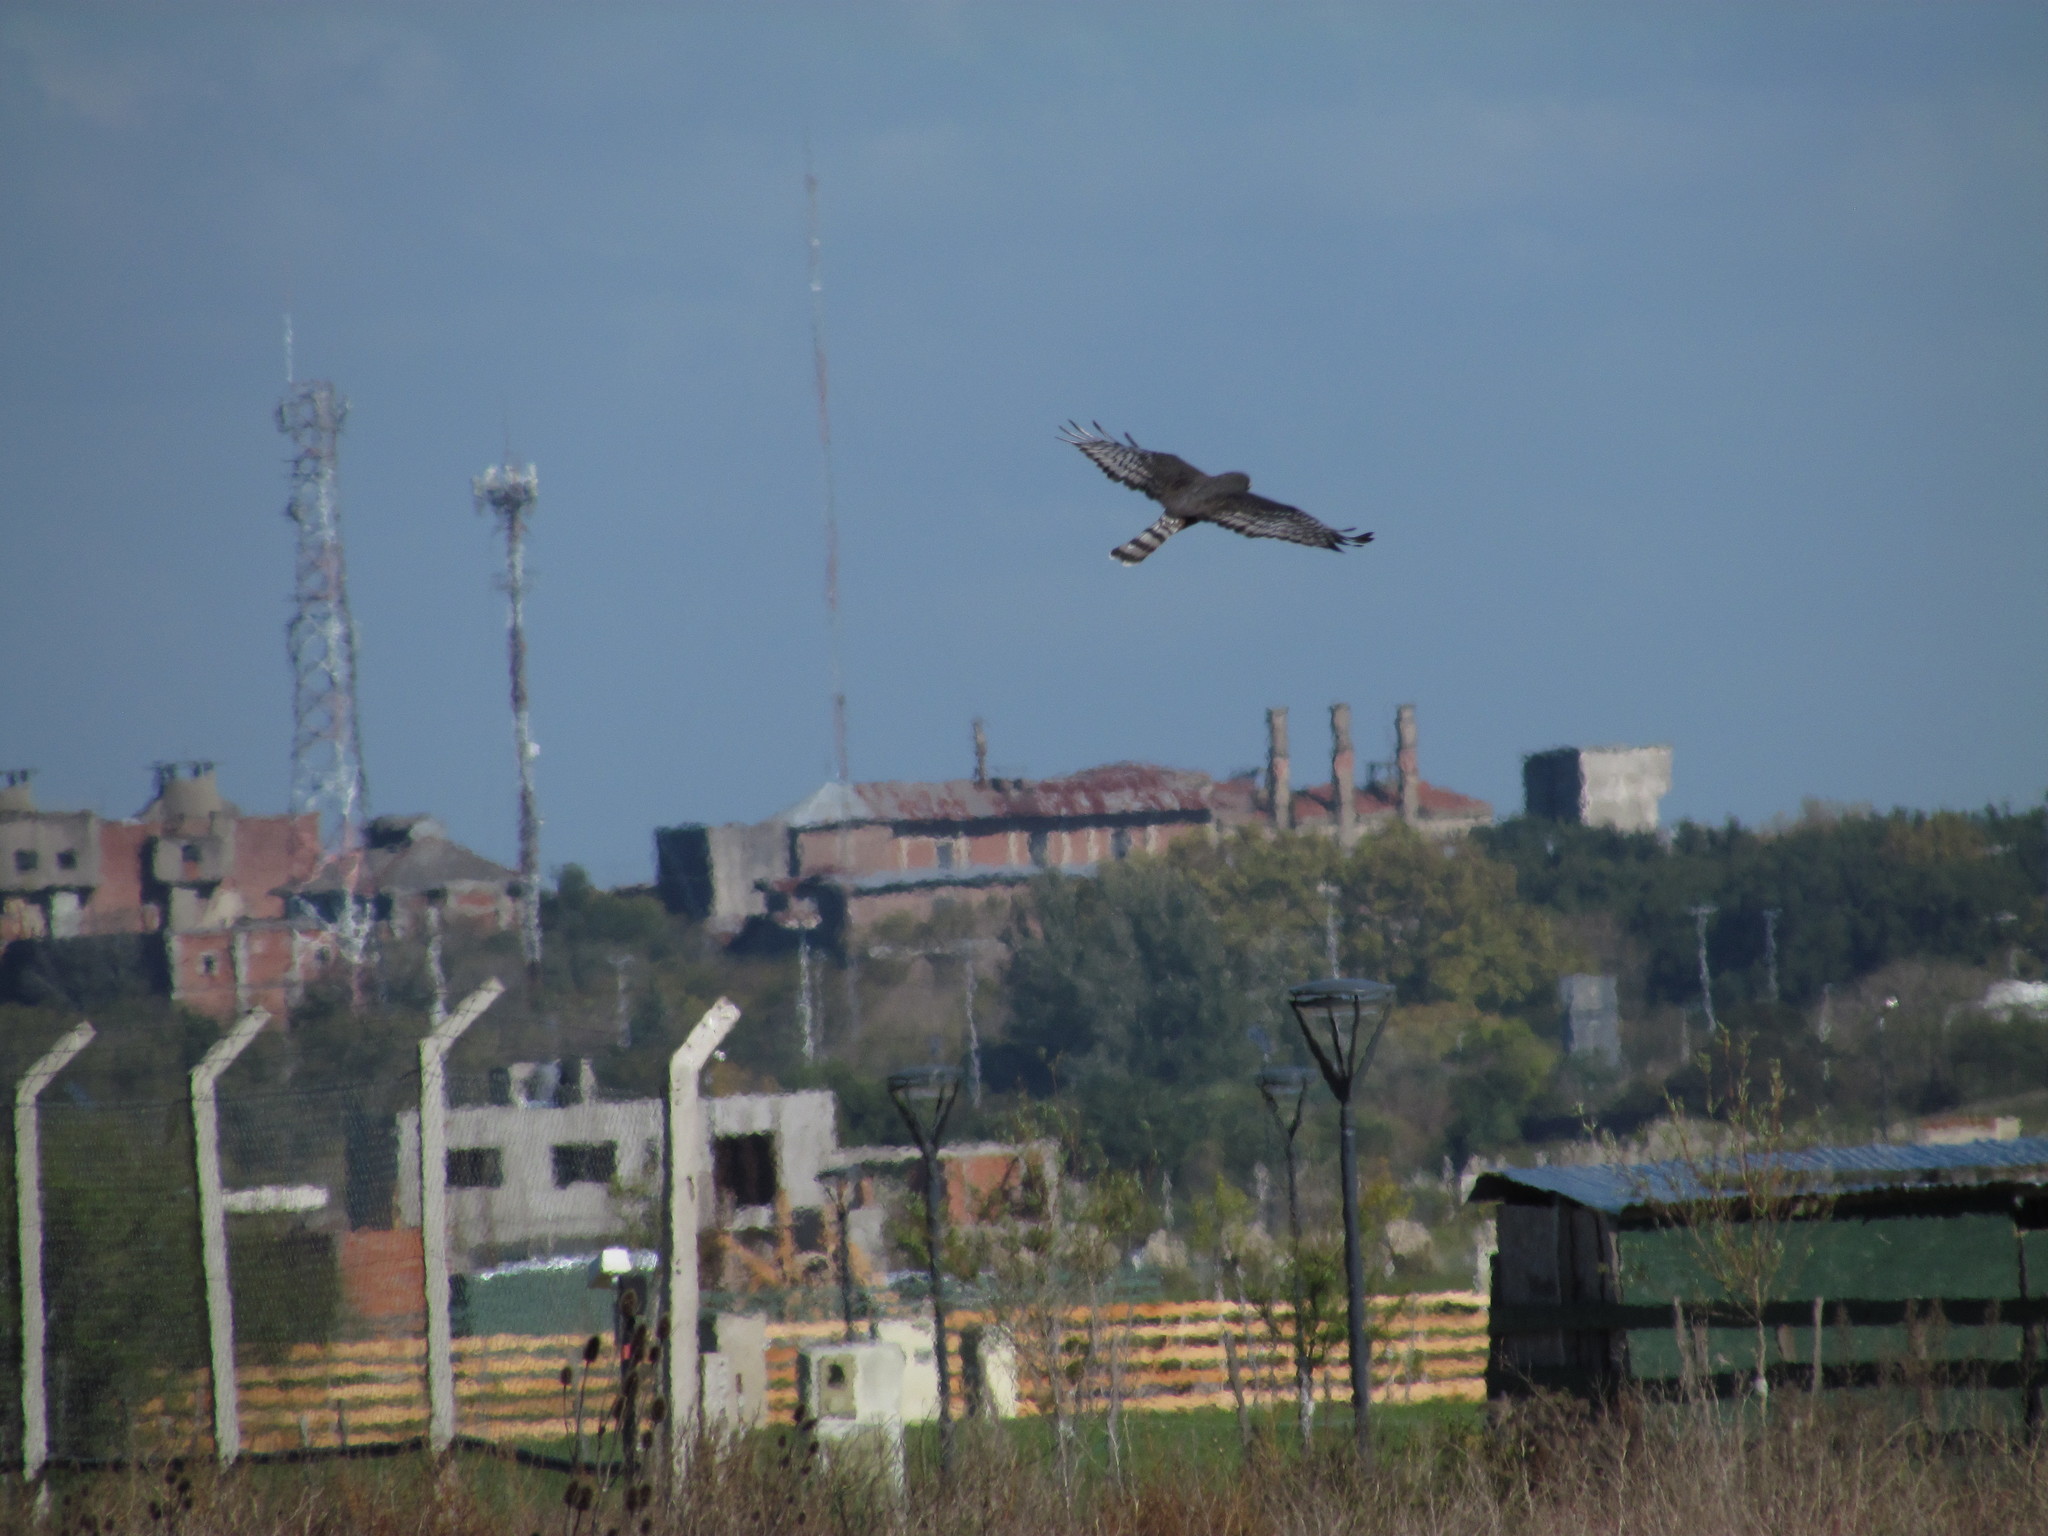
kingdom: Animalia
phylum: Chordata
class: Aves
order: Accipitriformes
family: Accipitridae
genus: Circus
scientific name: Circus buffoni
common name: Long-winged harrier
